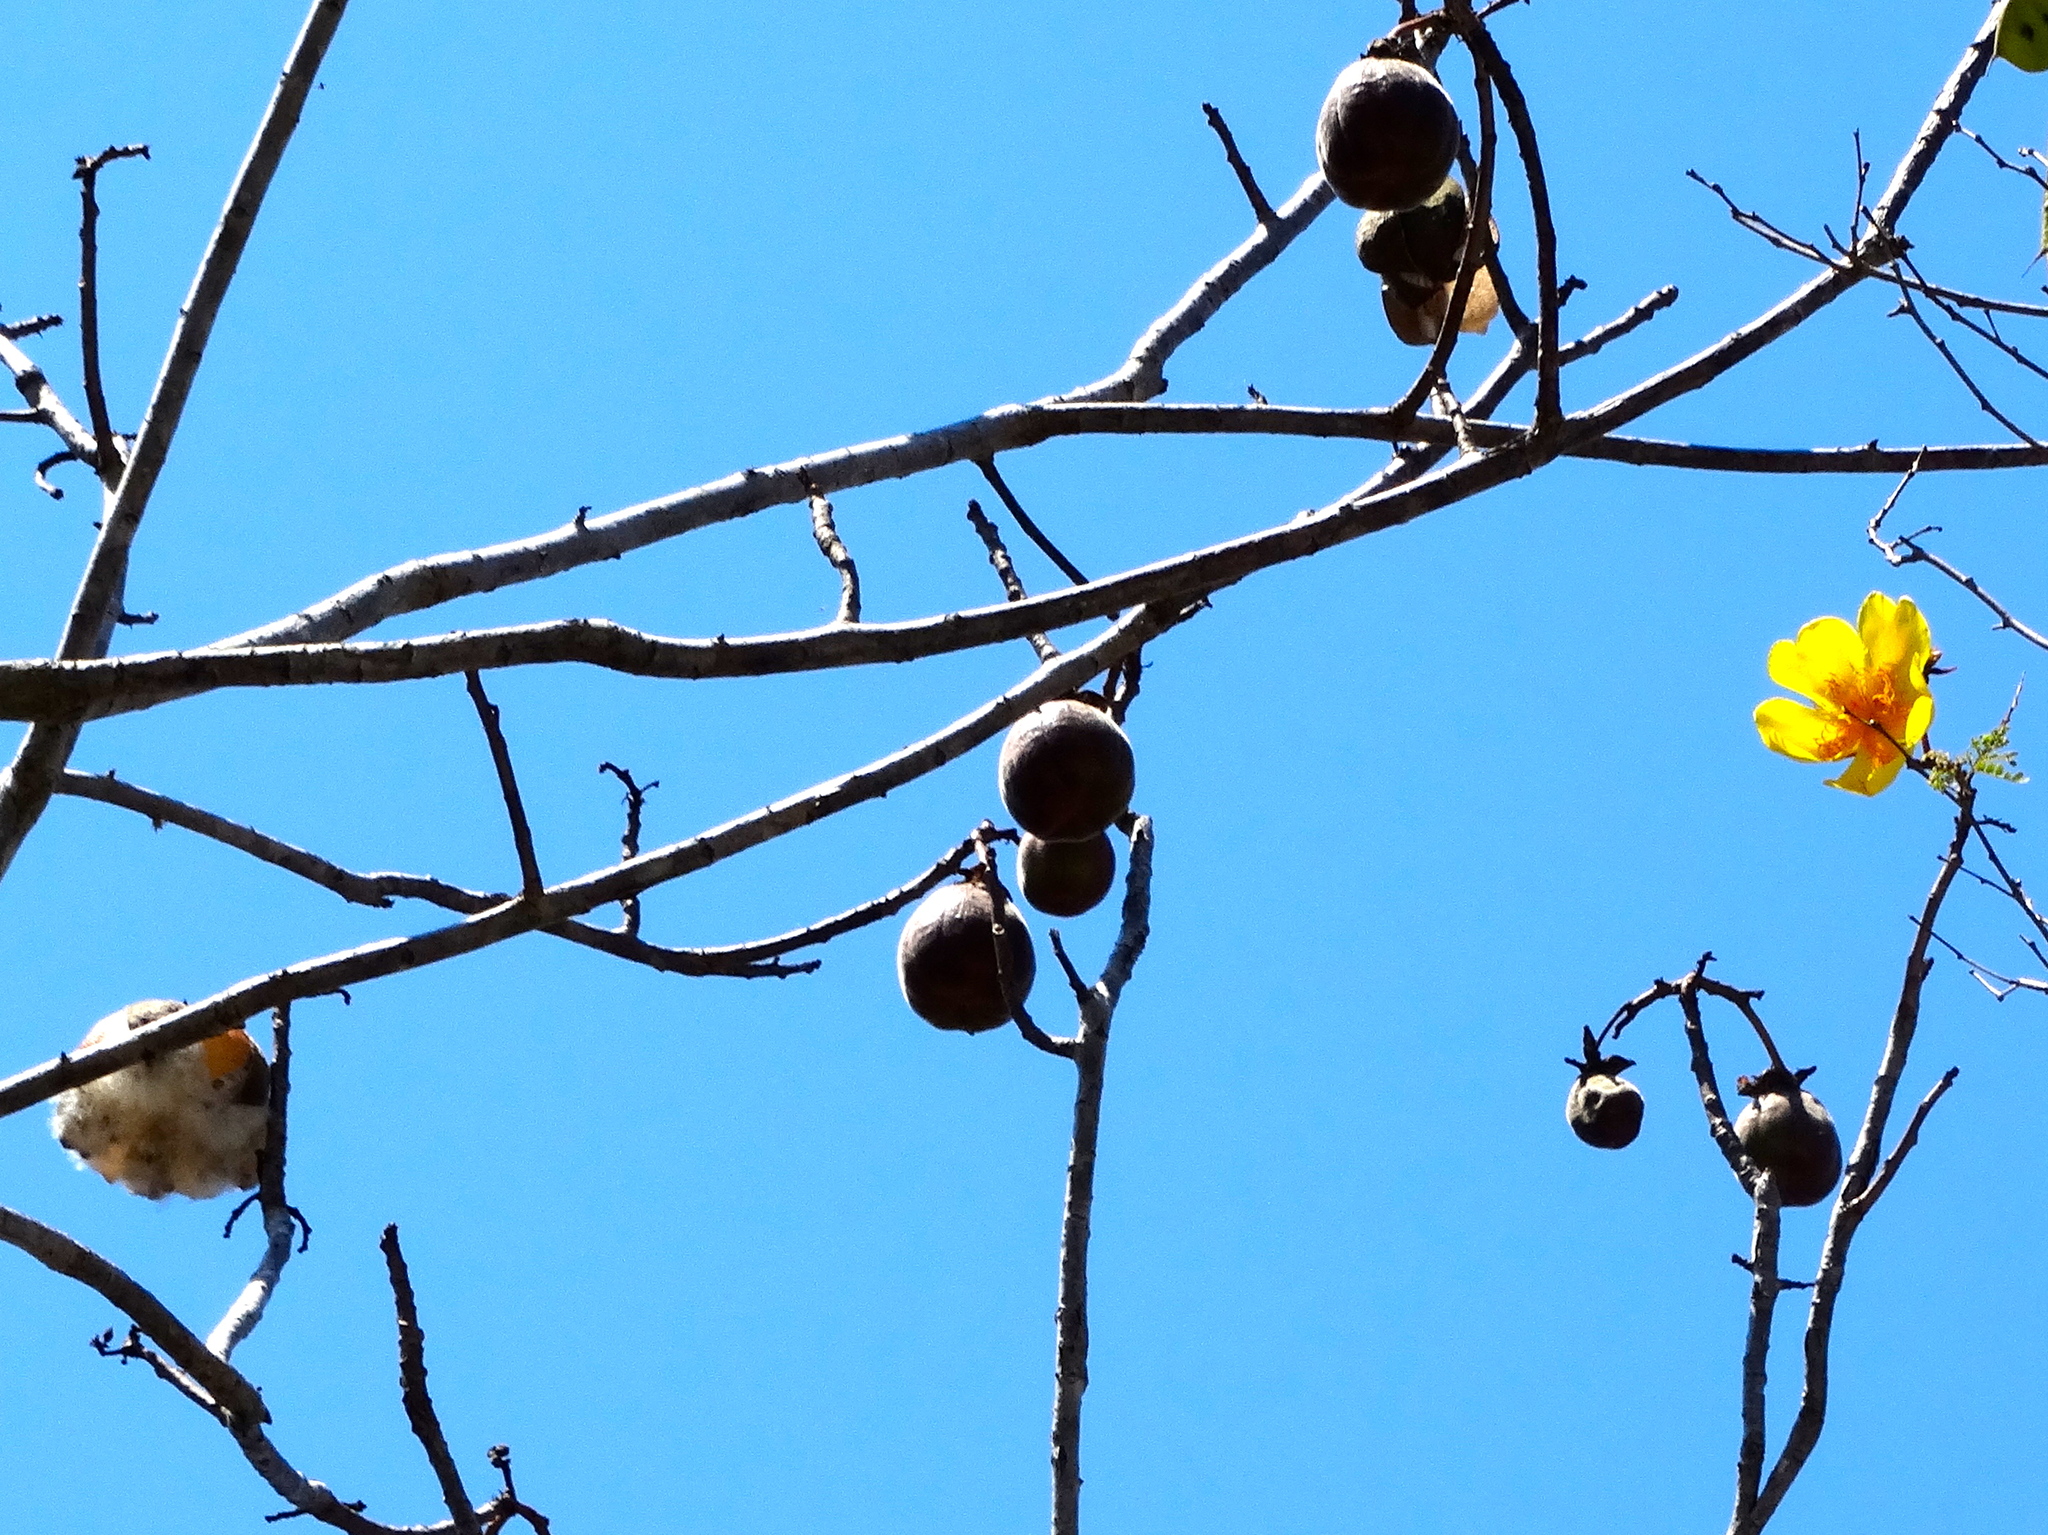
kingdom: Plantae
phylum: Tracheophyta
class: Magnoliopsida
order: Malvales
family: Cochlospermaceae
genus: Cochlospermum
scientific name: Cochlospermum vitifolium
